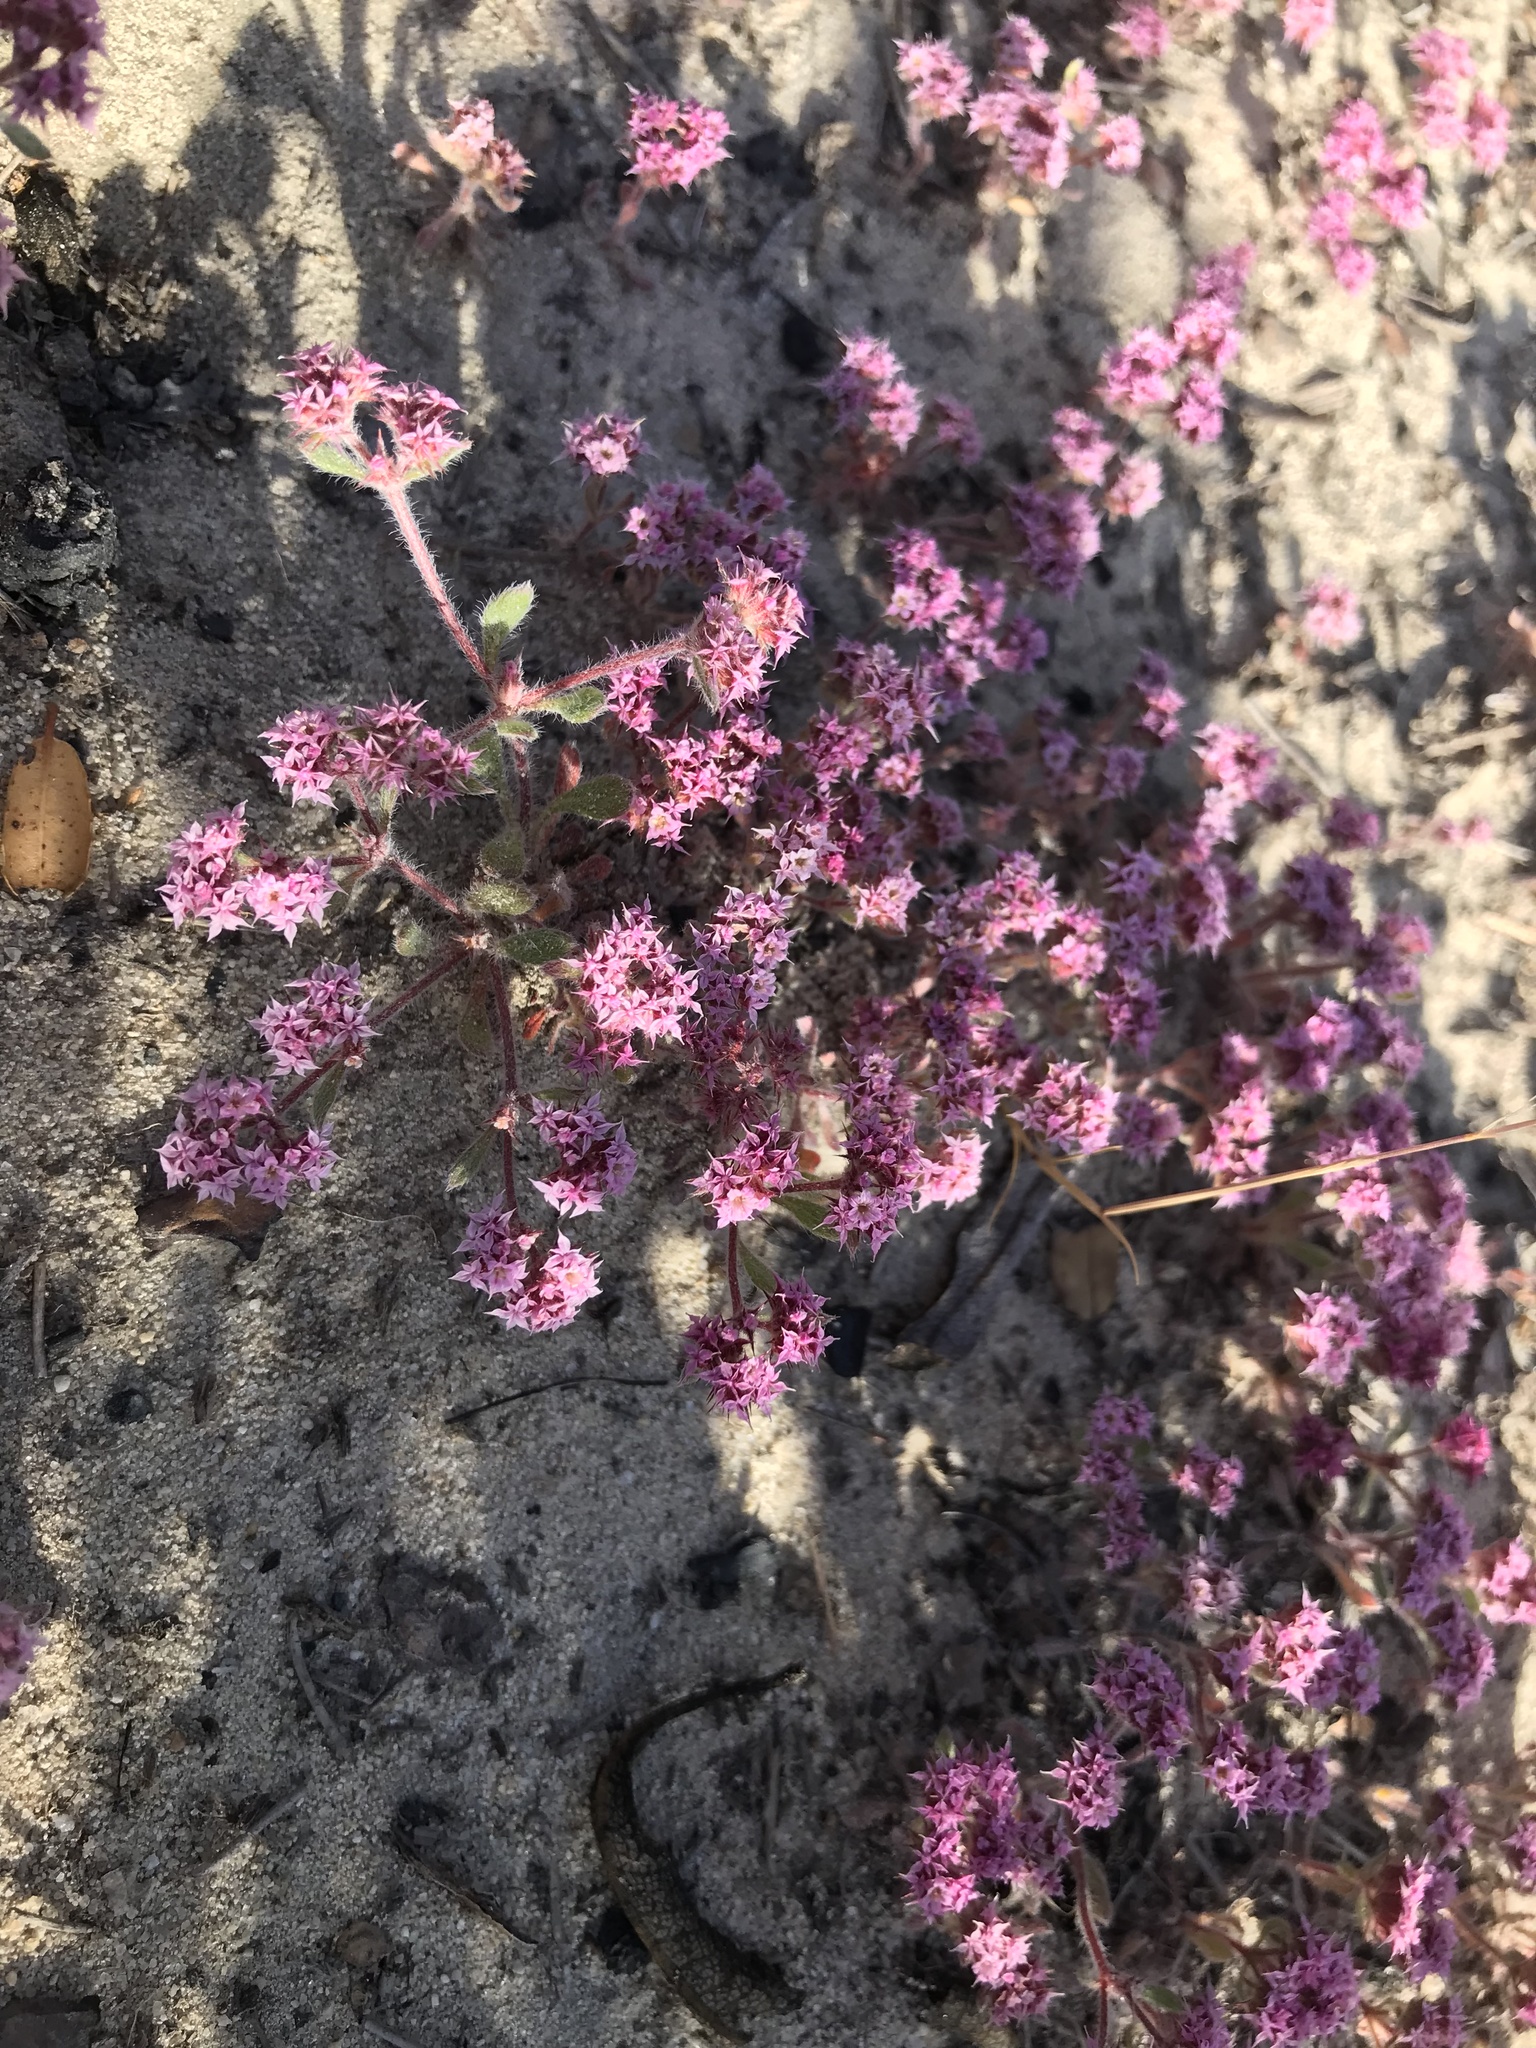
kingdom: Plantae
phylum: Tracheophyta
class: Magnoliopsida
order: Caryophyllales
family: Polygonaceae
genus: Chorizanthe
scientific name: Chorizanthe pungens
